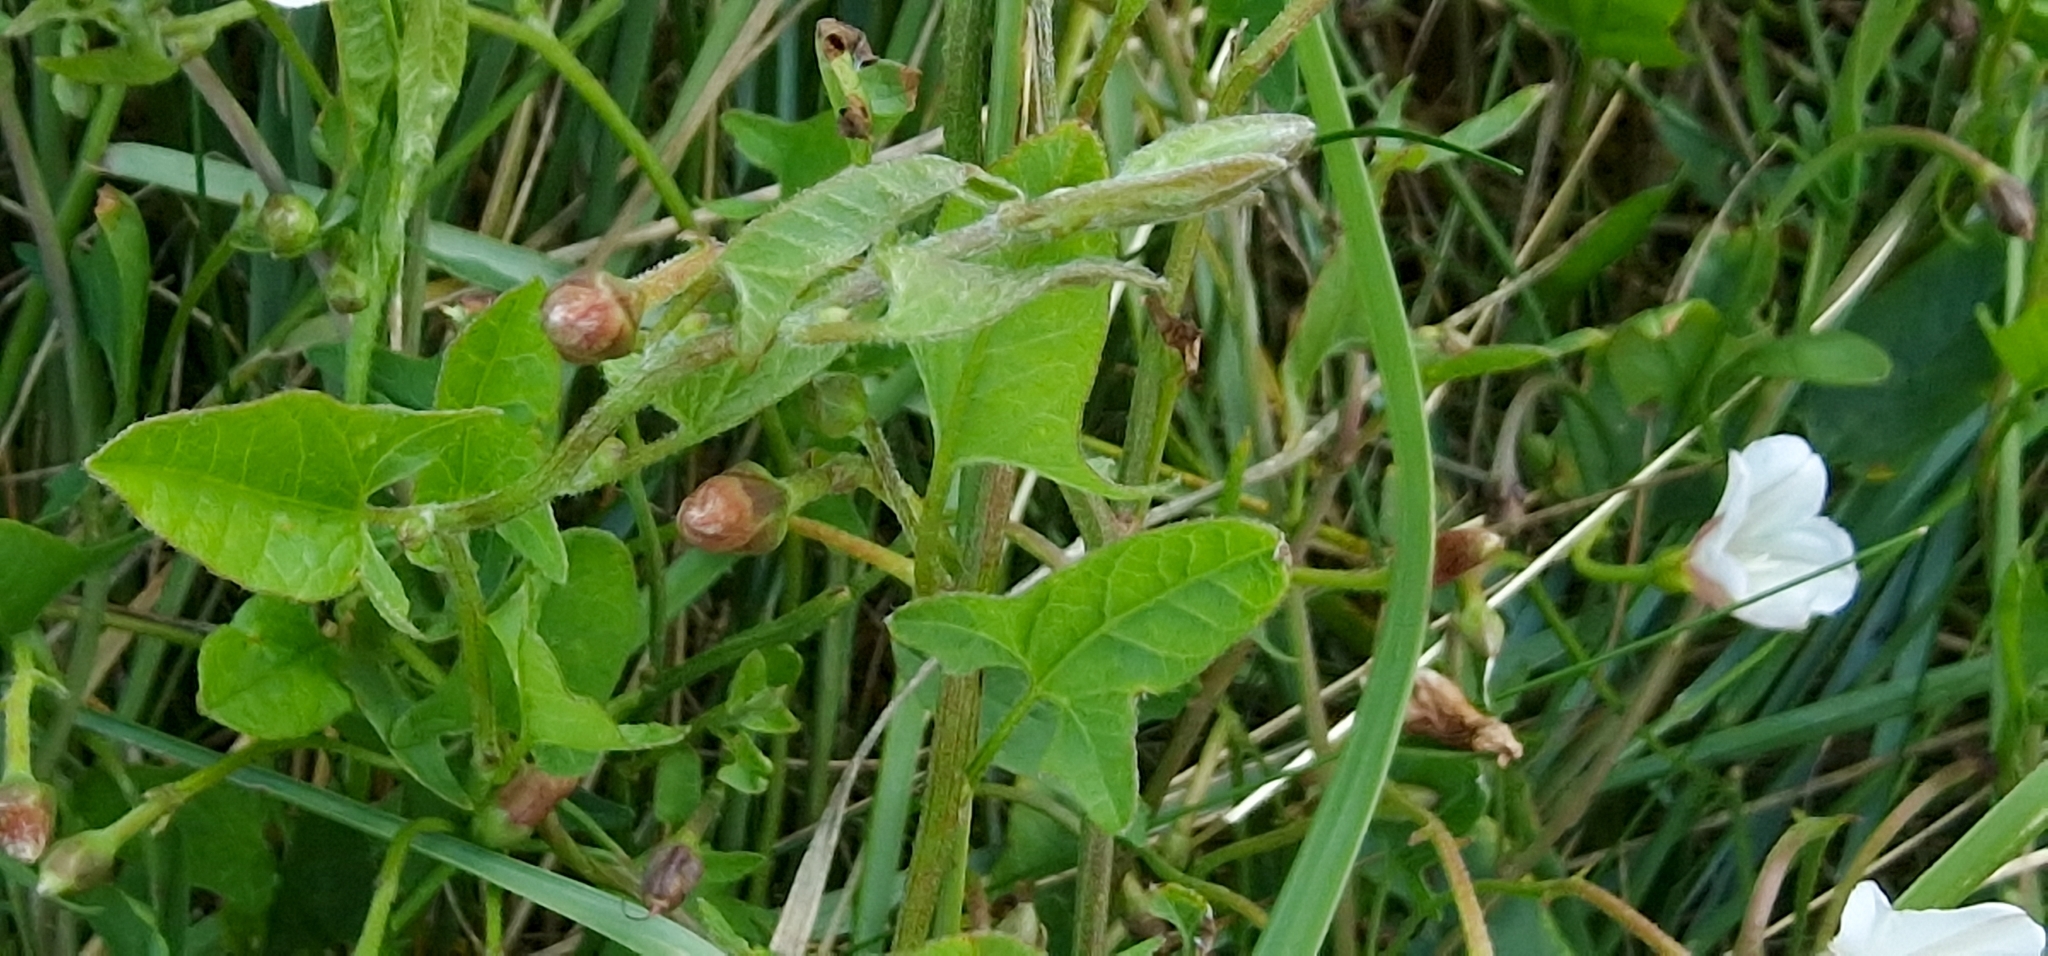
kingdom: Plantae
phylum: Tracheophyta
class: Magnoliopsida
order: Solanales
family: Convolvulaceae
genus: Convolvulus
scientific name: Convolvulus arvensis
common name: Field bindweed
